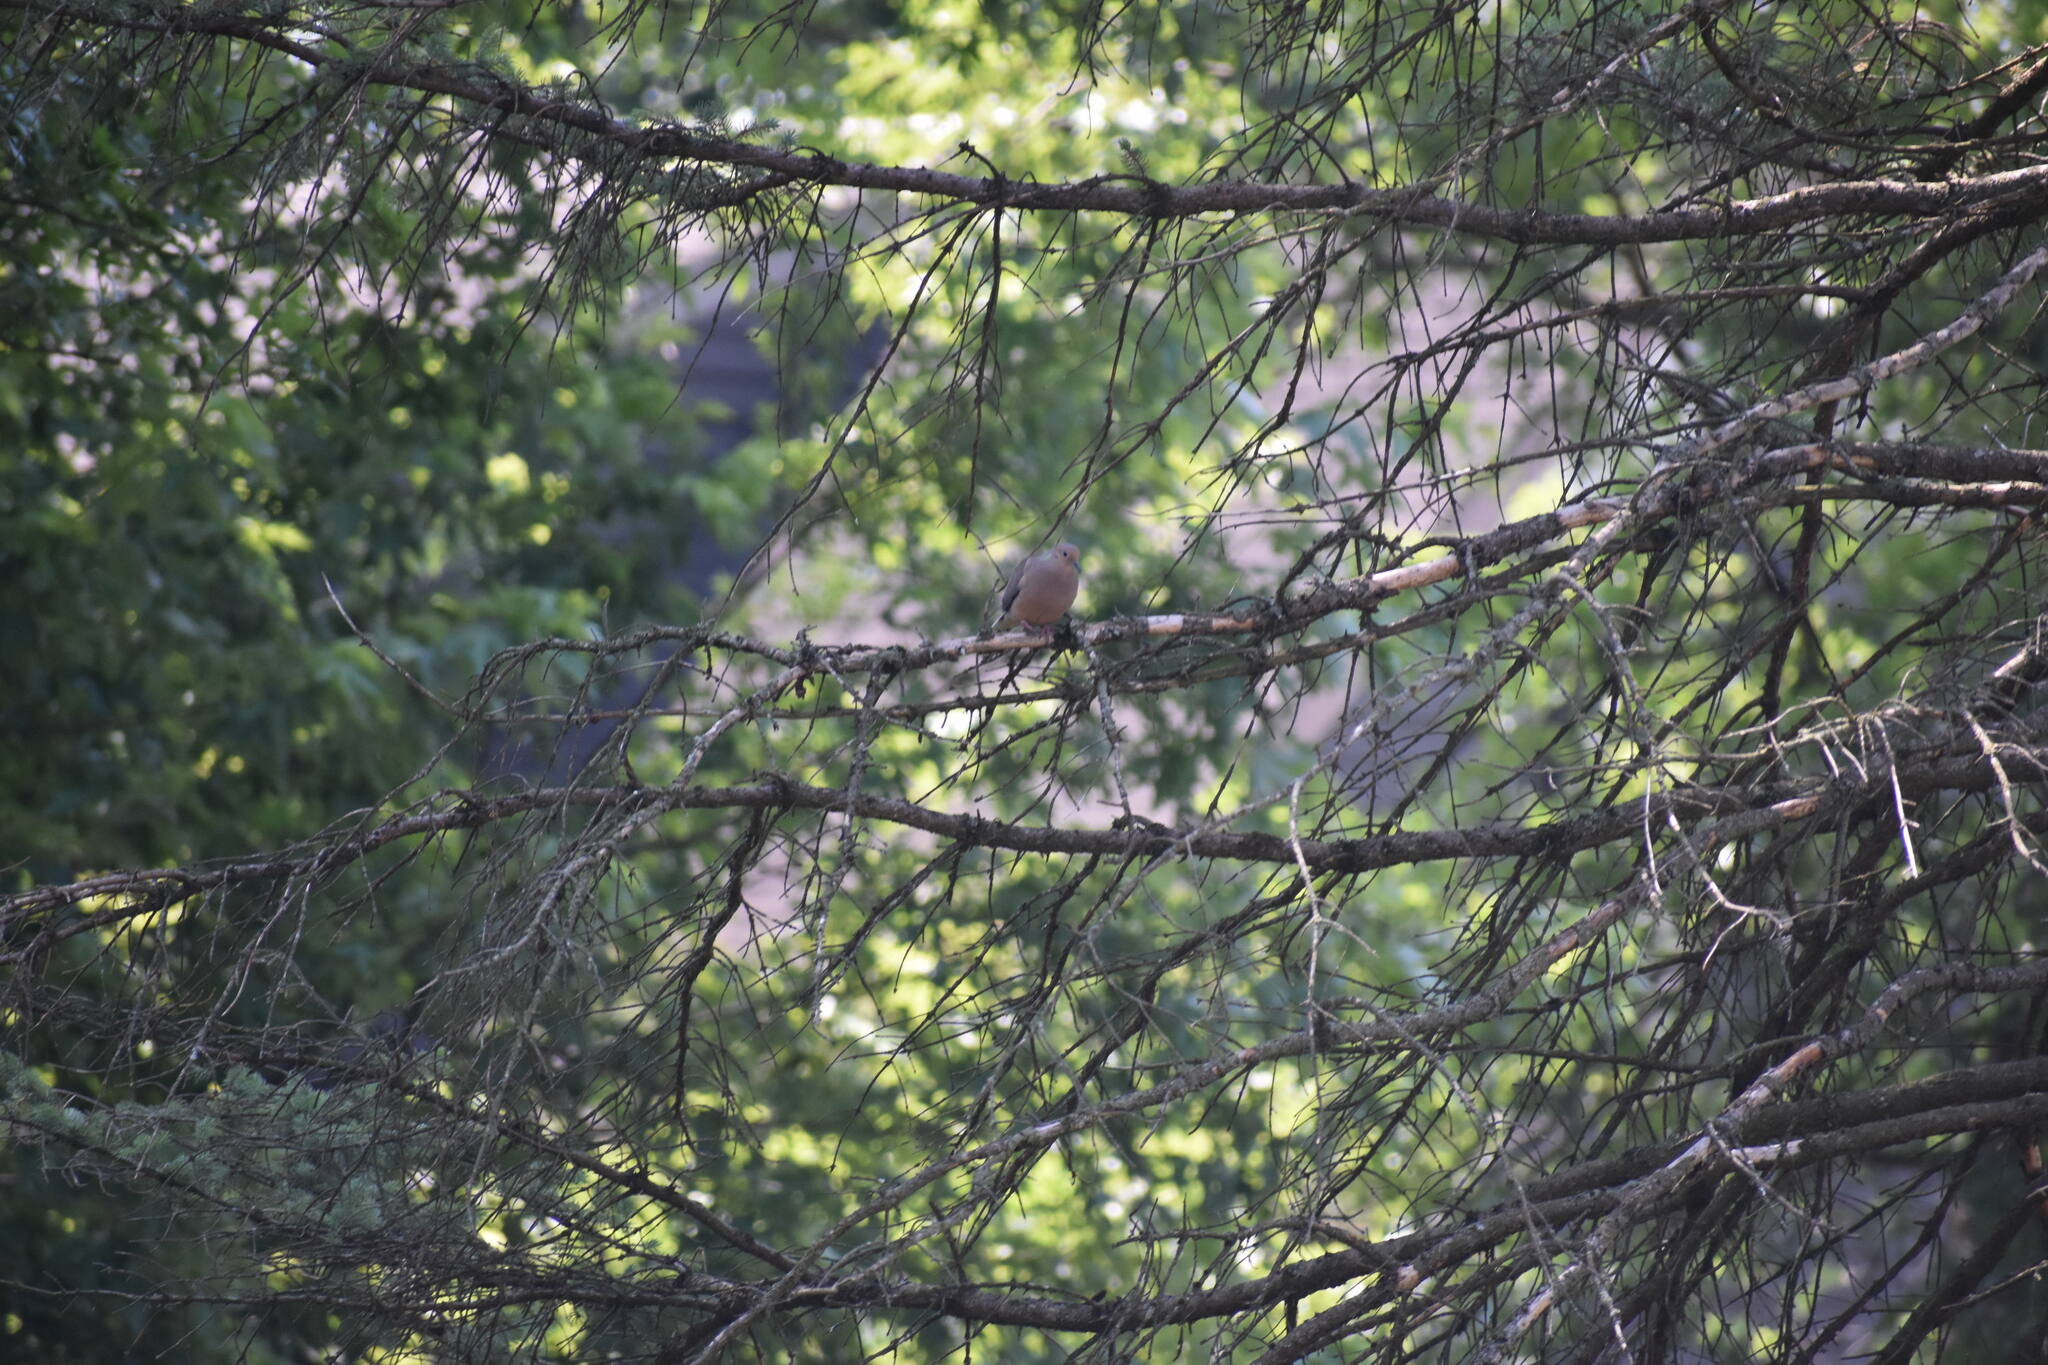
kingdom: Animalia
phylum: Chordata
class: Aves
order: Columbiformes
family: Columbidae
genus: Zenaida
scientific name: Zenaida macroura
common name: Mourning dove
